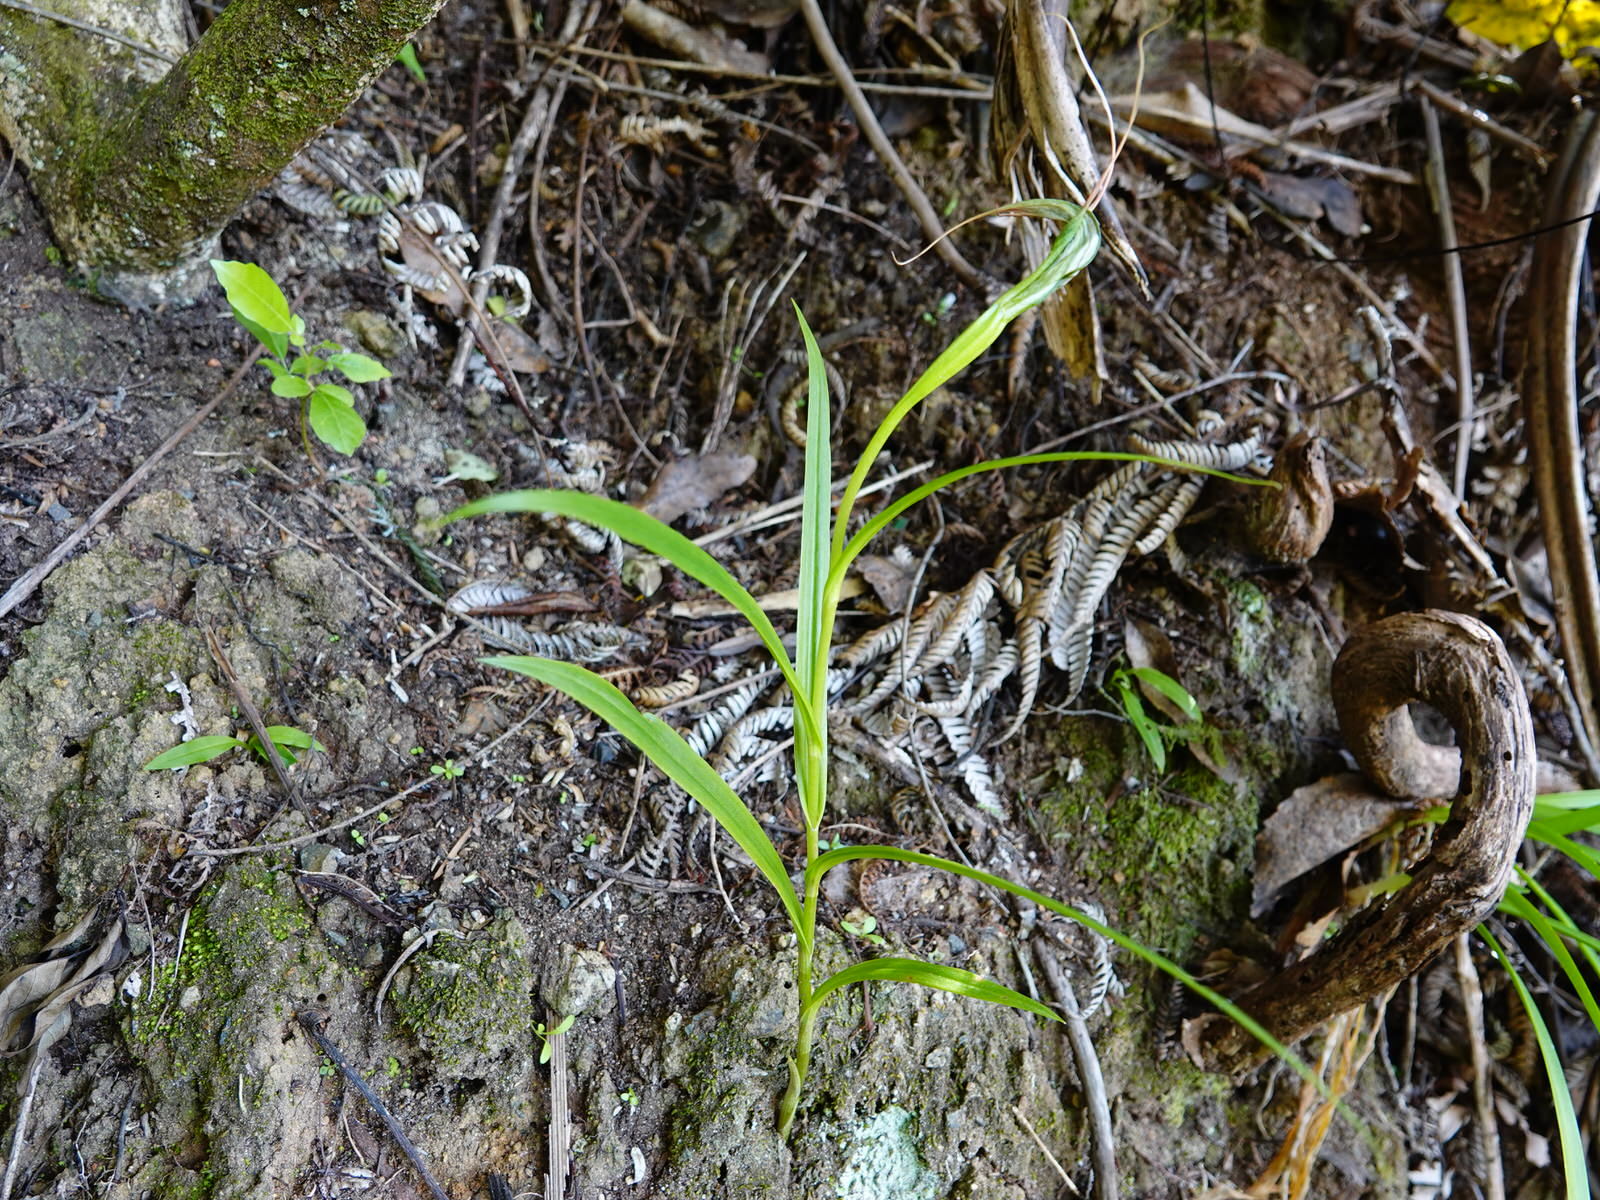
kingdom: Plantae
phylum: Tracheophyta
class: Liliopsida
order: Asparagales
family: Orchidaceae
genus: Pterostylis
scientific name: Pterostylis banksii
